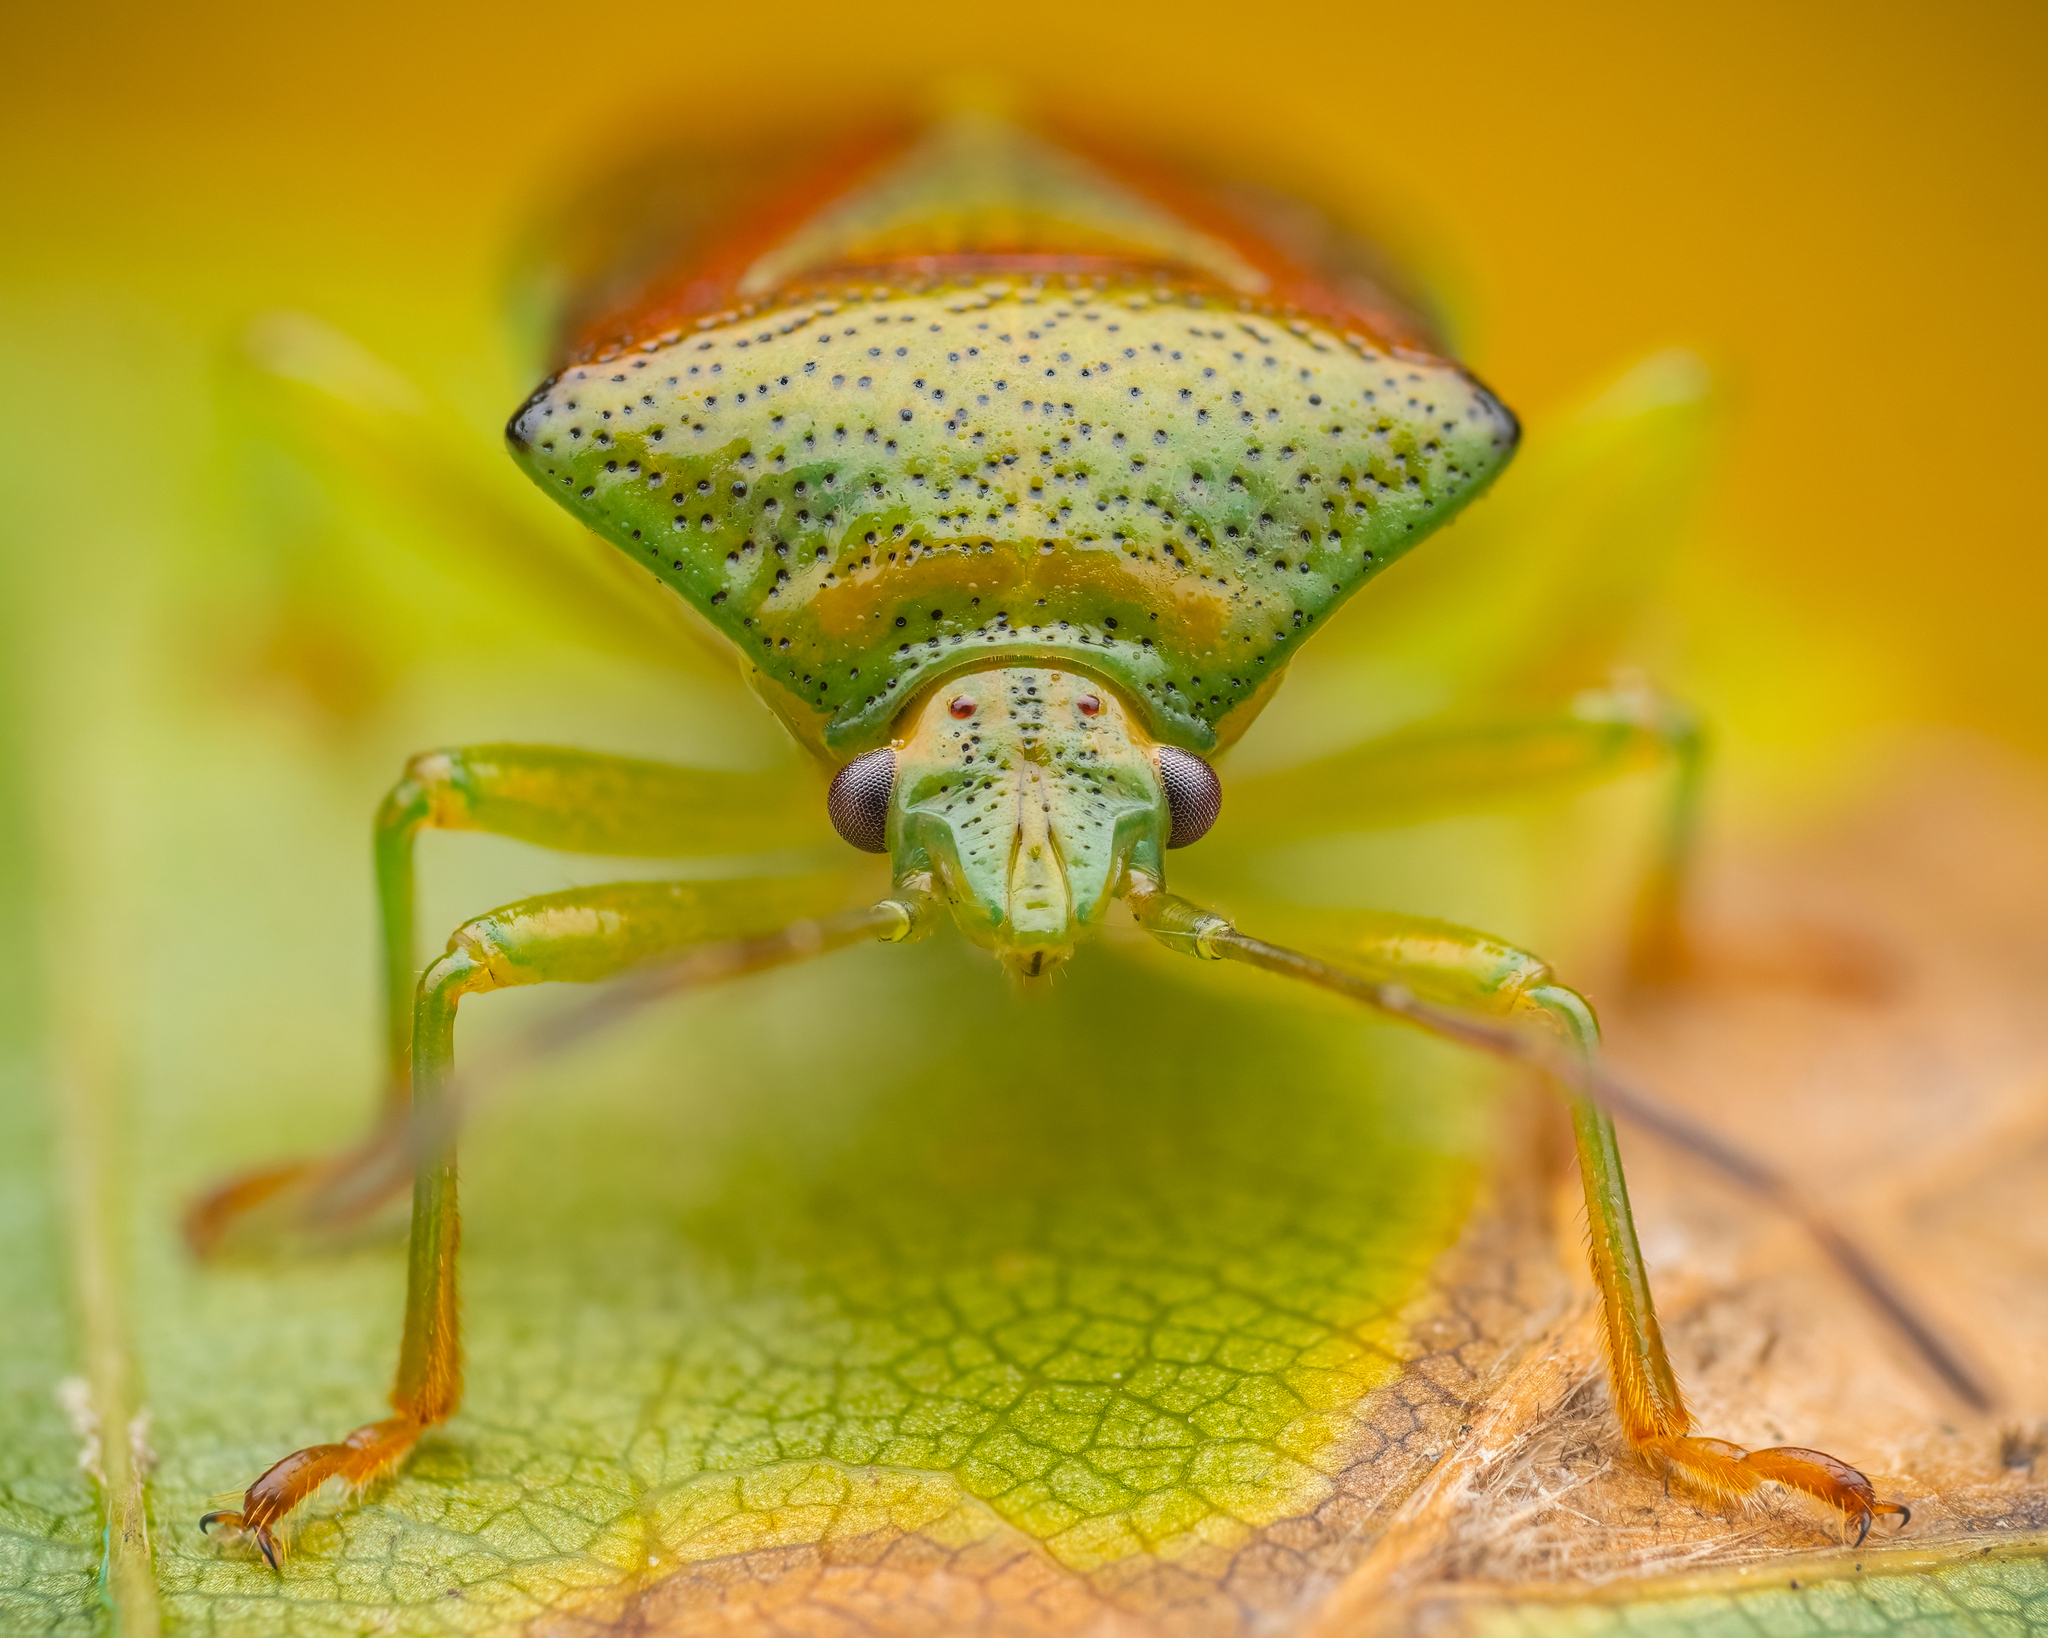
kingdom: Animalia
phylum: Arthropoda
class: Insecta
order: Hemiptera
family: Acanthosomatidae
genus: Elasmostethus
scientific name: Elasmostethus
